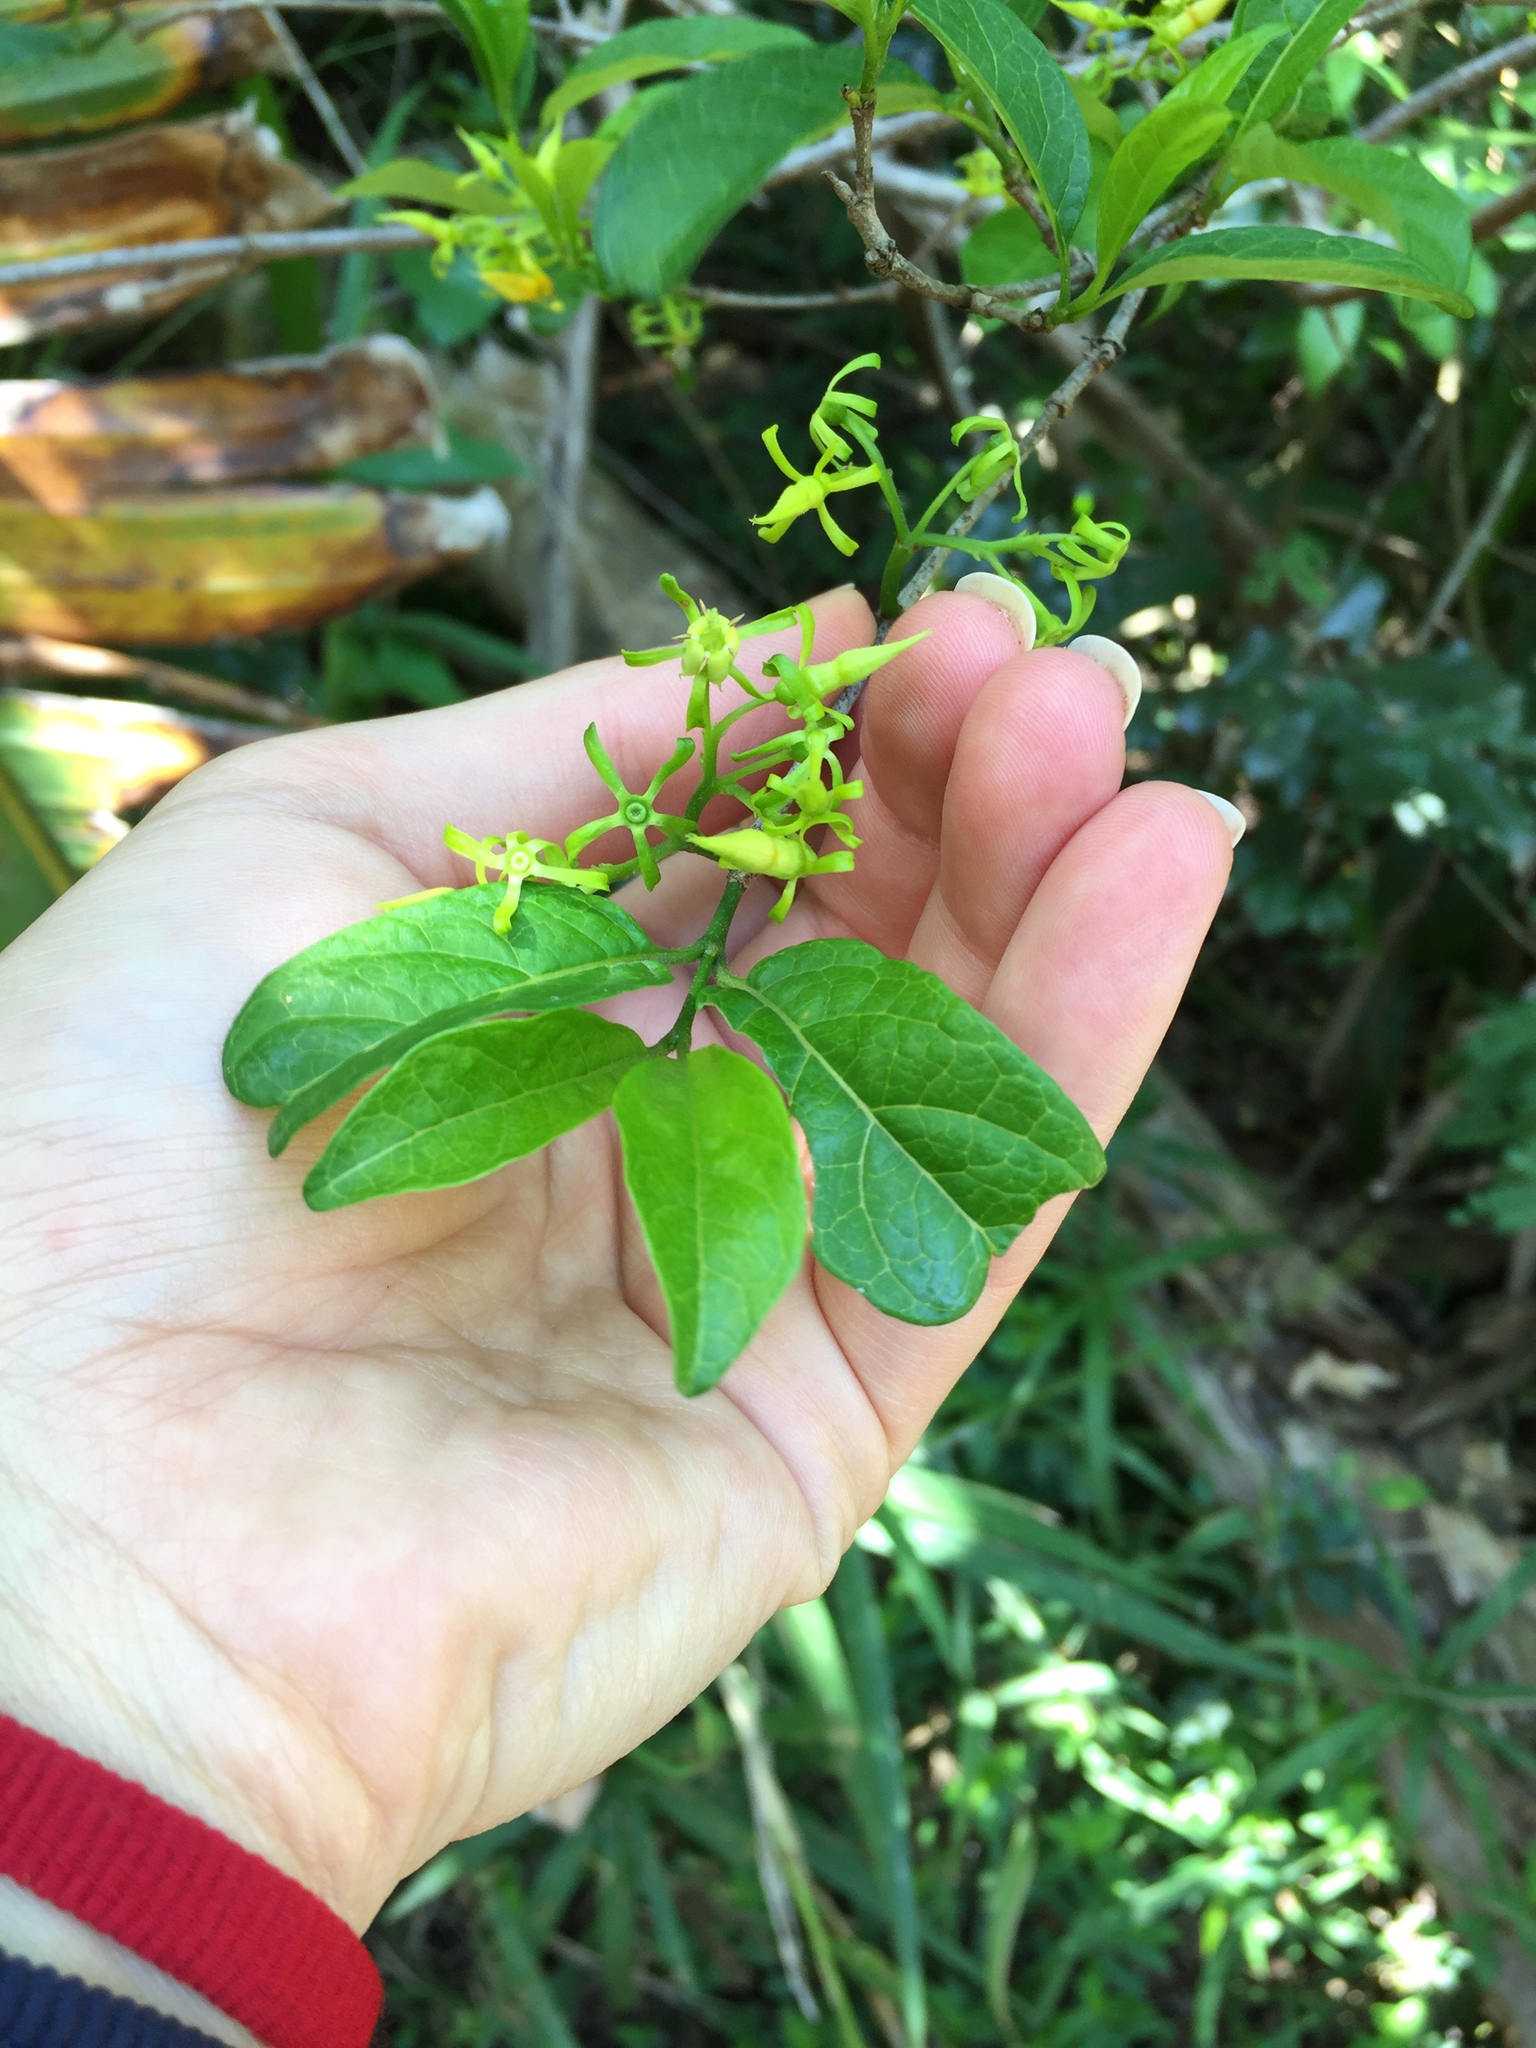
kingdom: Plantae
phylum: Tracheophyta
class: Magnoliopsida
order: Gentianales
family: Rubiaceae
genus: Vangueria
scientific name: Vangueria lasiantha
